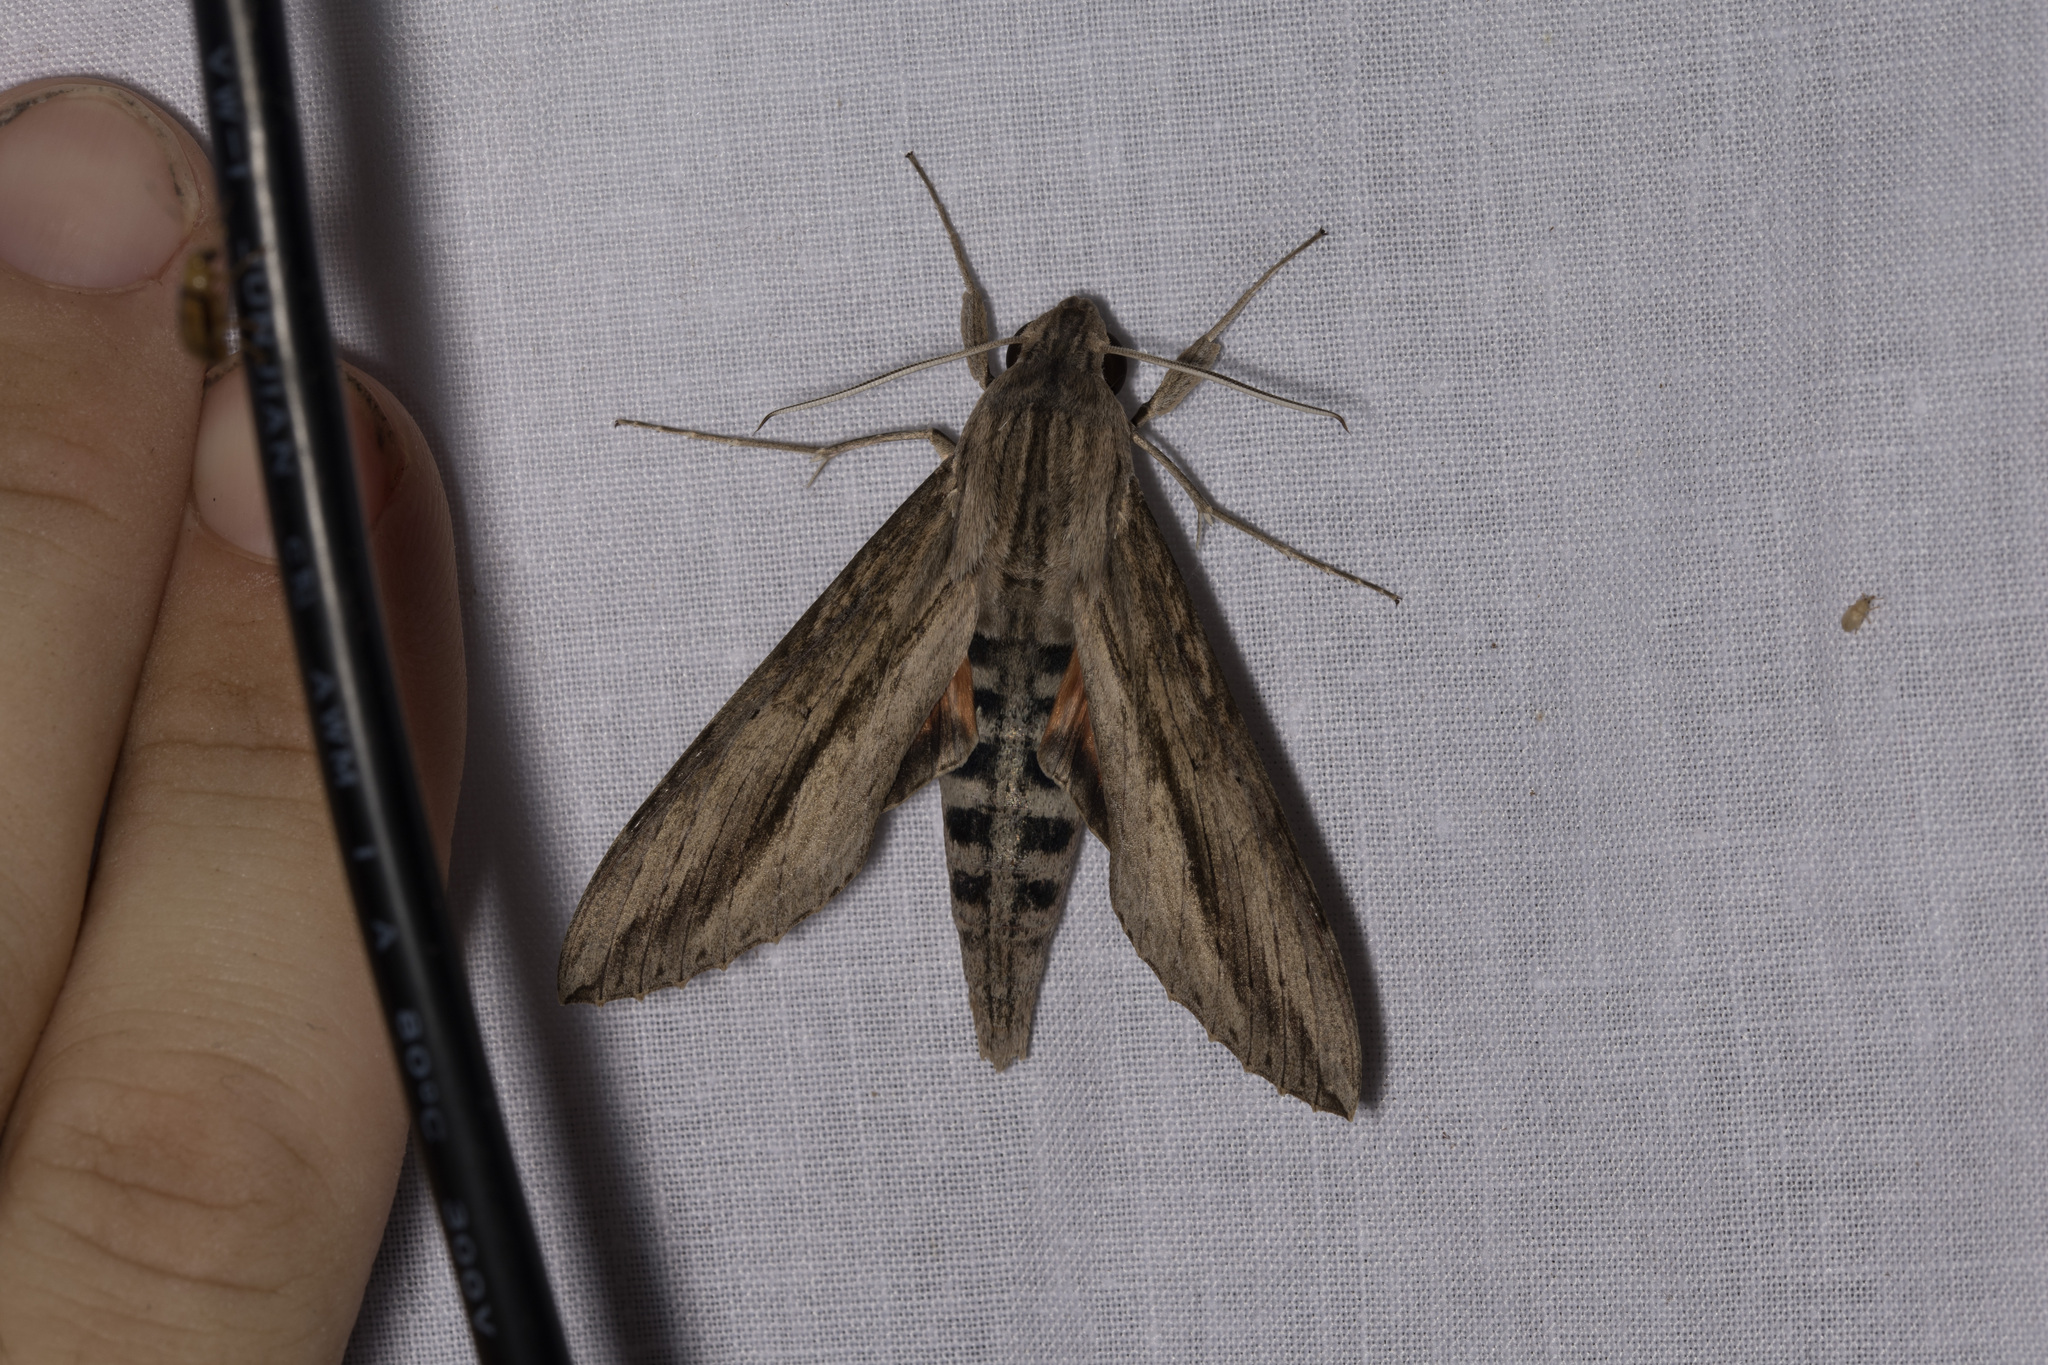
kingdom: Animalia
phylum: Arthropoda
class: Insecta
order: Lepidoptera
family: Sphingidae
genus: Erinnyis
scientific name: Erinnyis ello
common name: Ello sphinx
